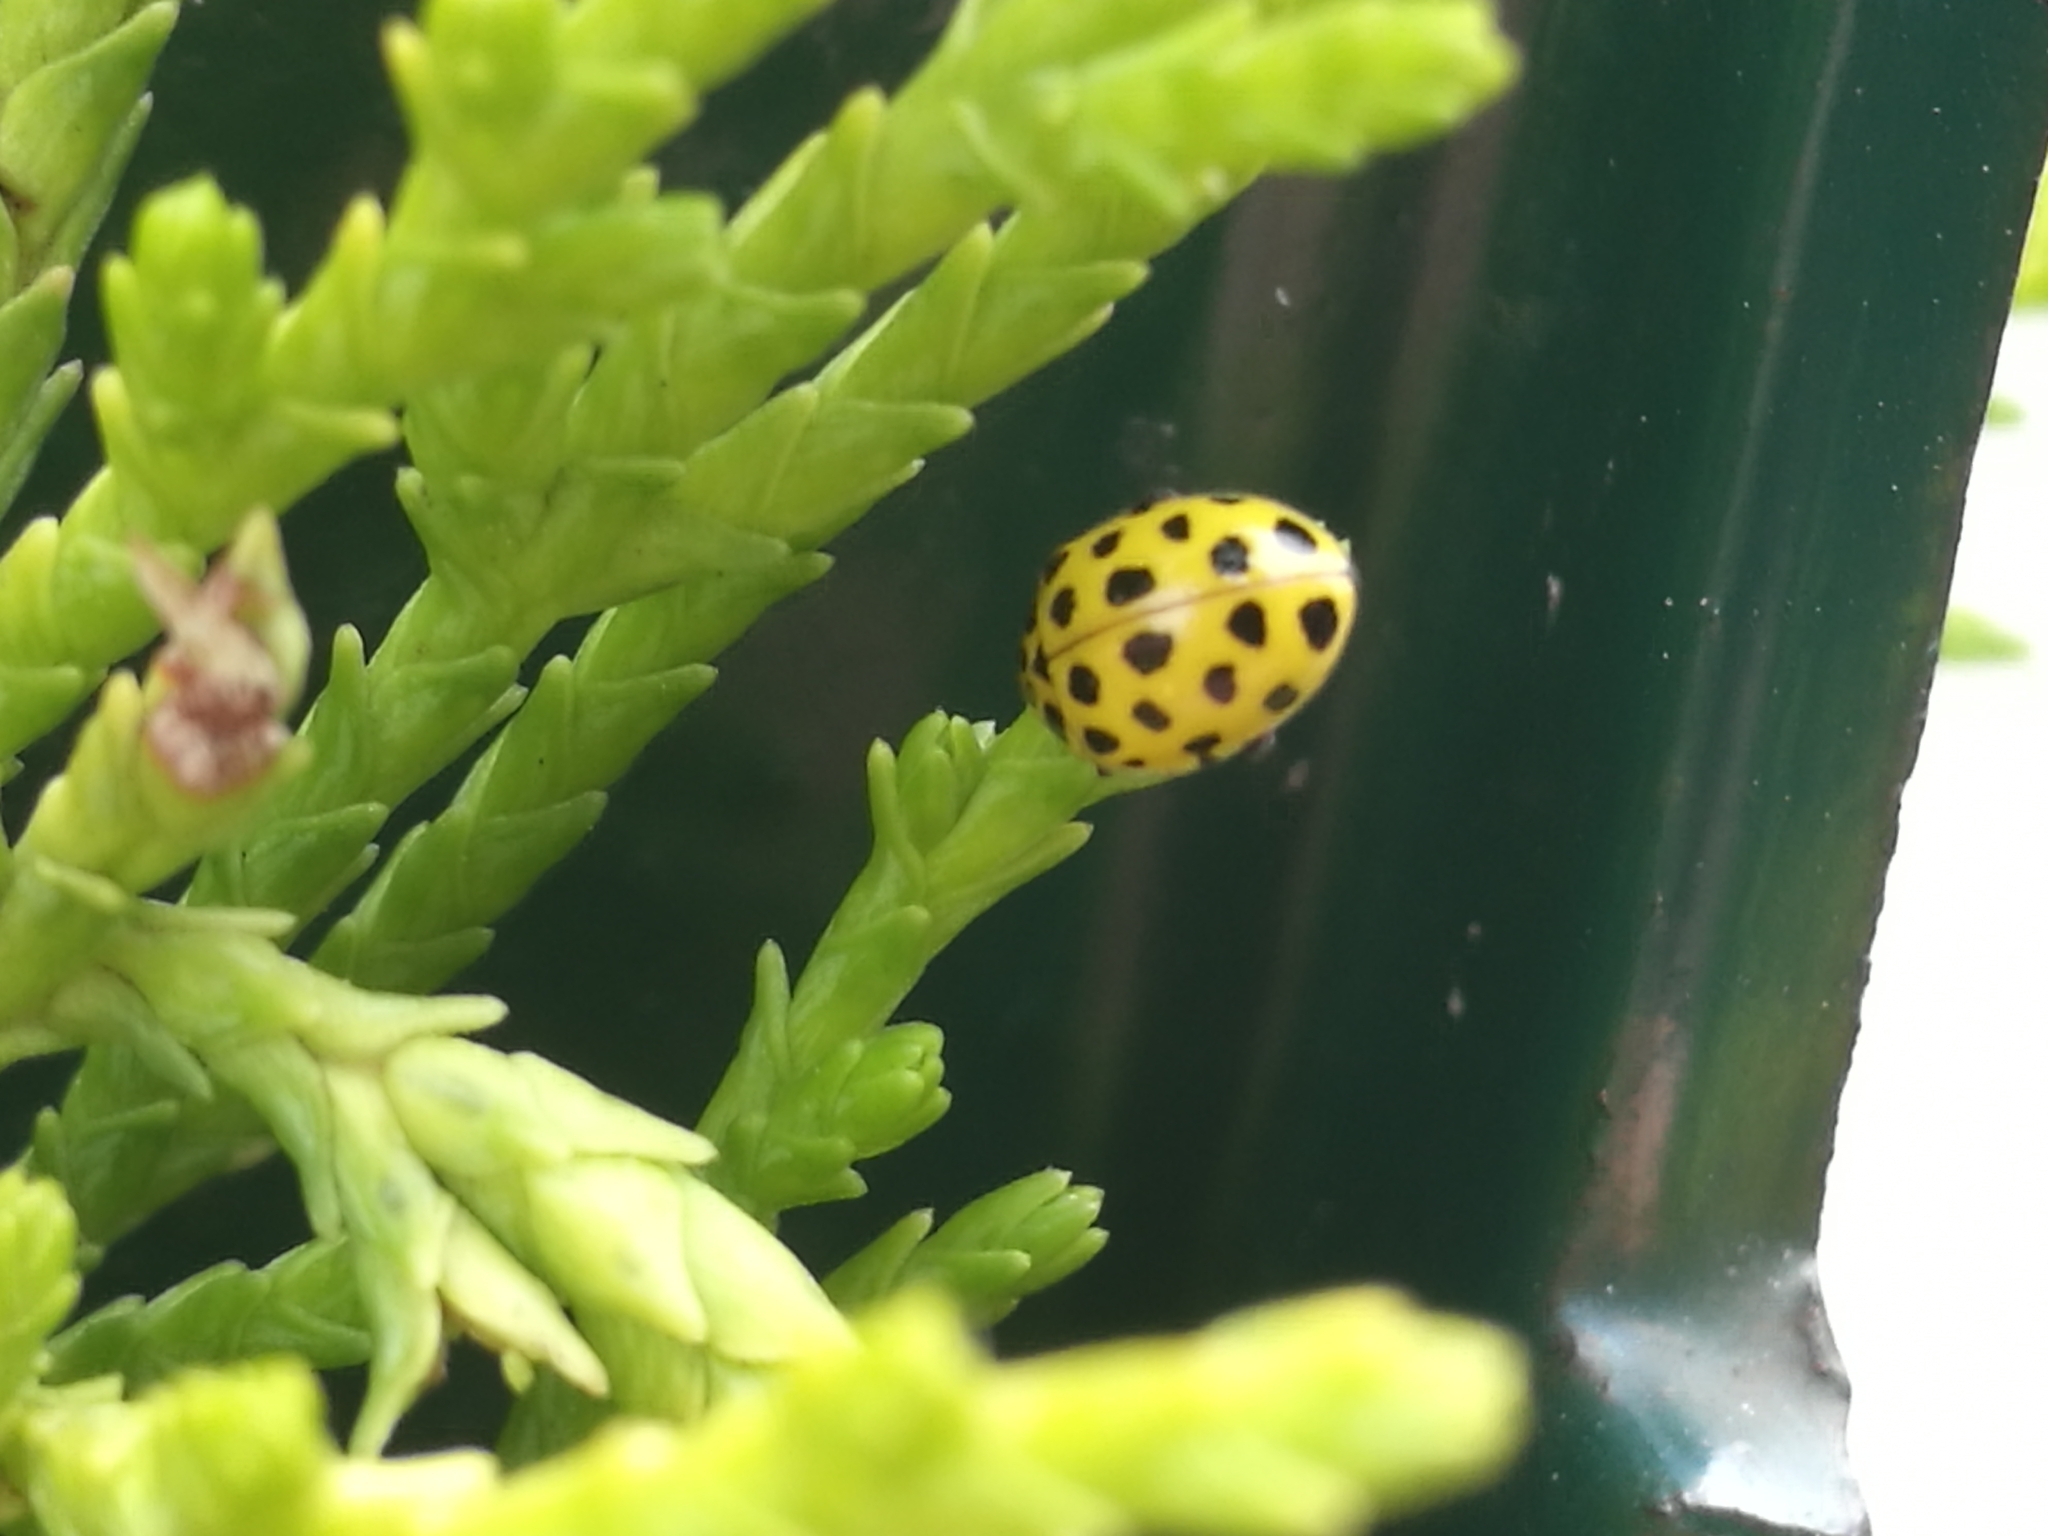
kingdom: Animalia
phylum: Arthropoda
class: Insecta
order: Coleoptera
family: Coccinellidae
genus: Psyllobora
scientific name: Psyllobora vigintiduopunctata
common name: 22-spot ladybird
